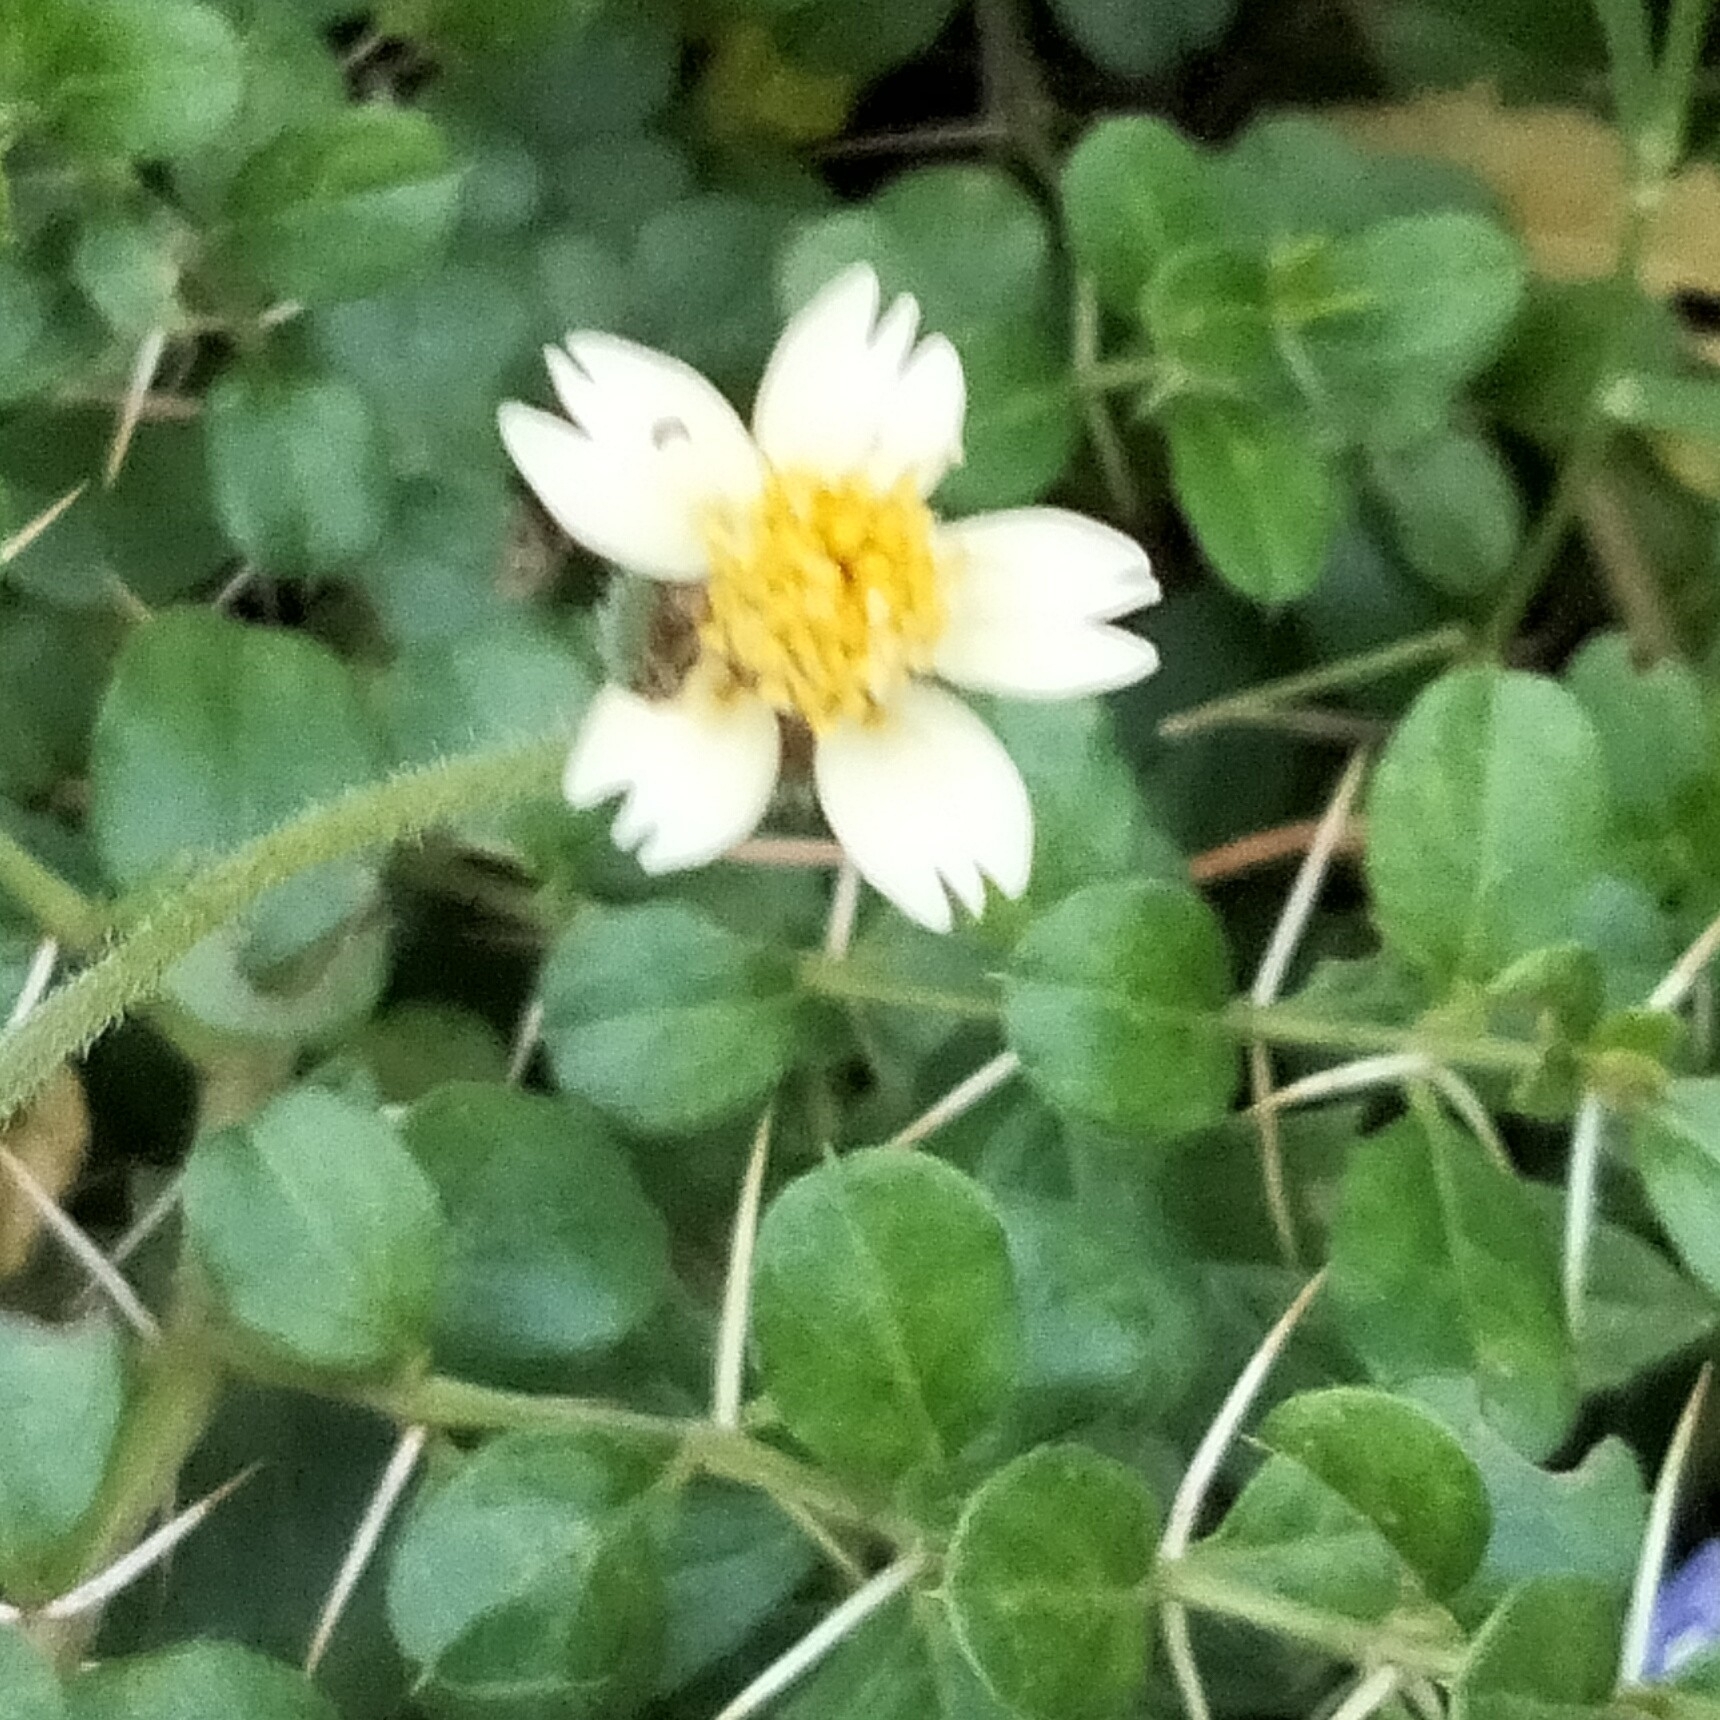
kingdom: Plantae
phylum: Tracheophyta
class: Magnoliopsida
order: Asterales
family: Asteraceae
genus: Tridax
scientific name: Tridax procumbens
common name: Coatbuttons
